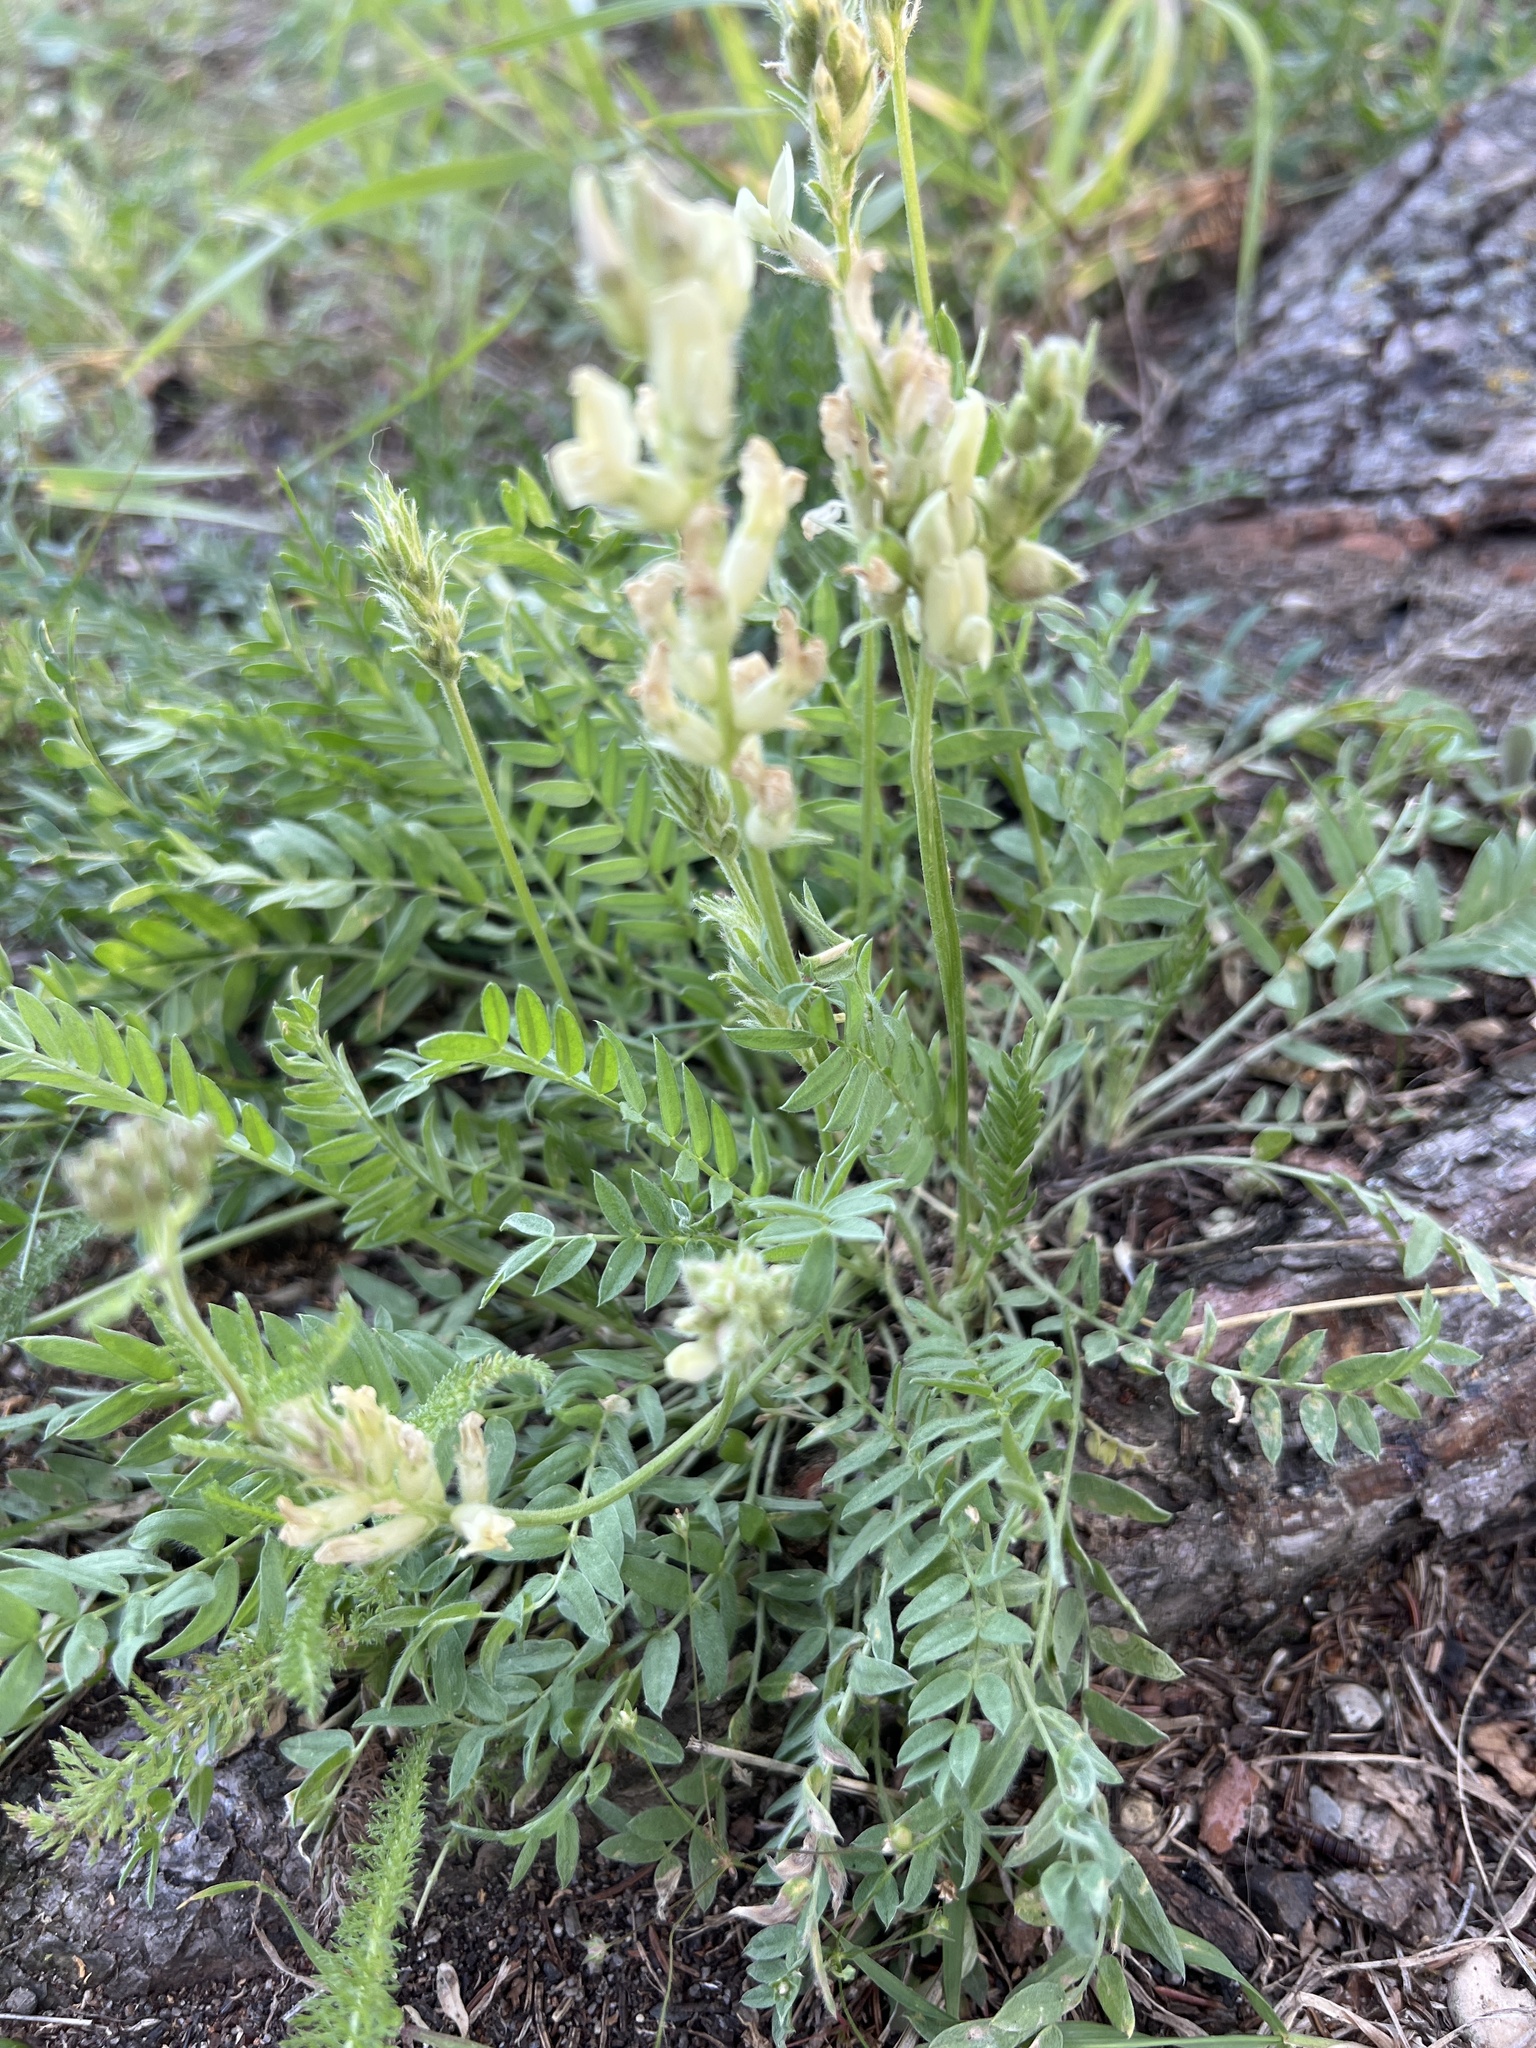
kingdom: Plantae
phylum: Tracheophyta
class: Magnoliopsida
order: Fabales
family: Fabaceae
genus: Oxytropis
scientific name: Oxytropis campestris
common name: Field locoweed
